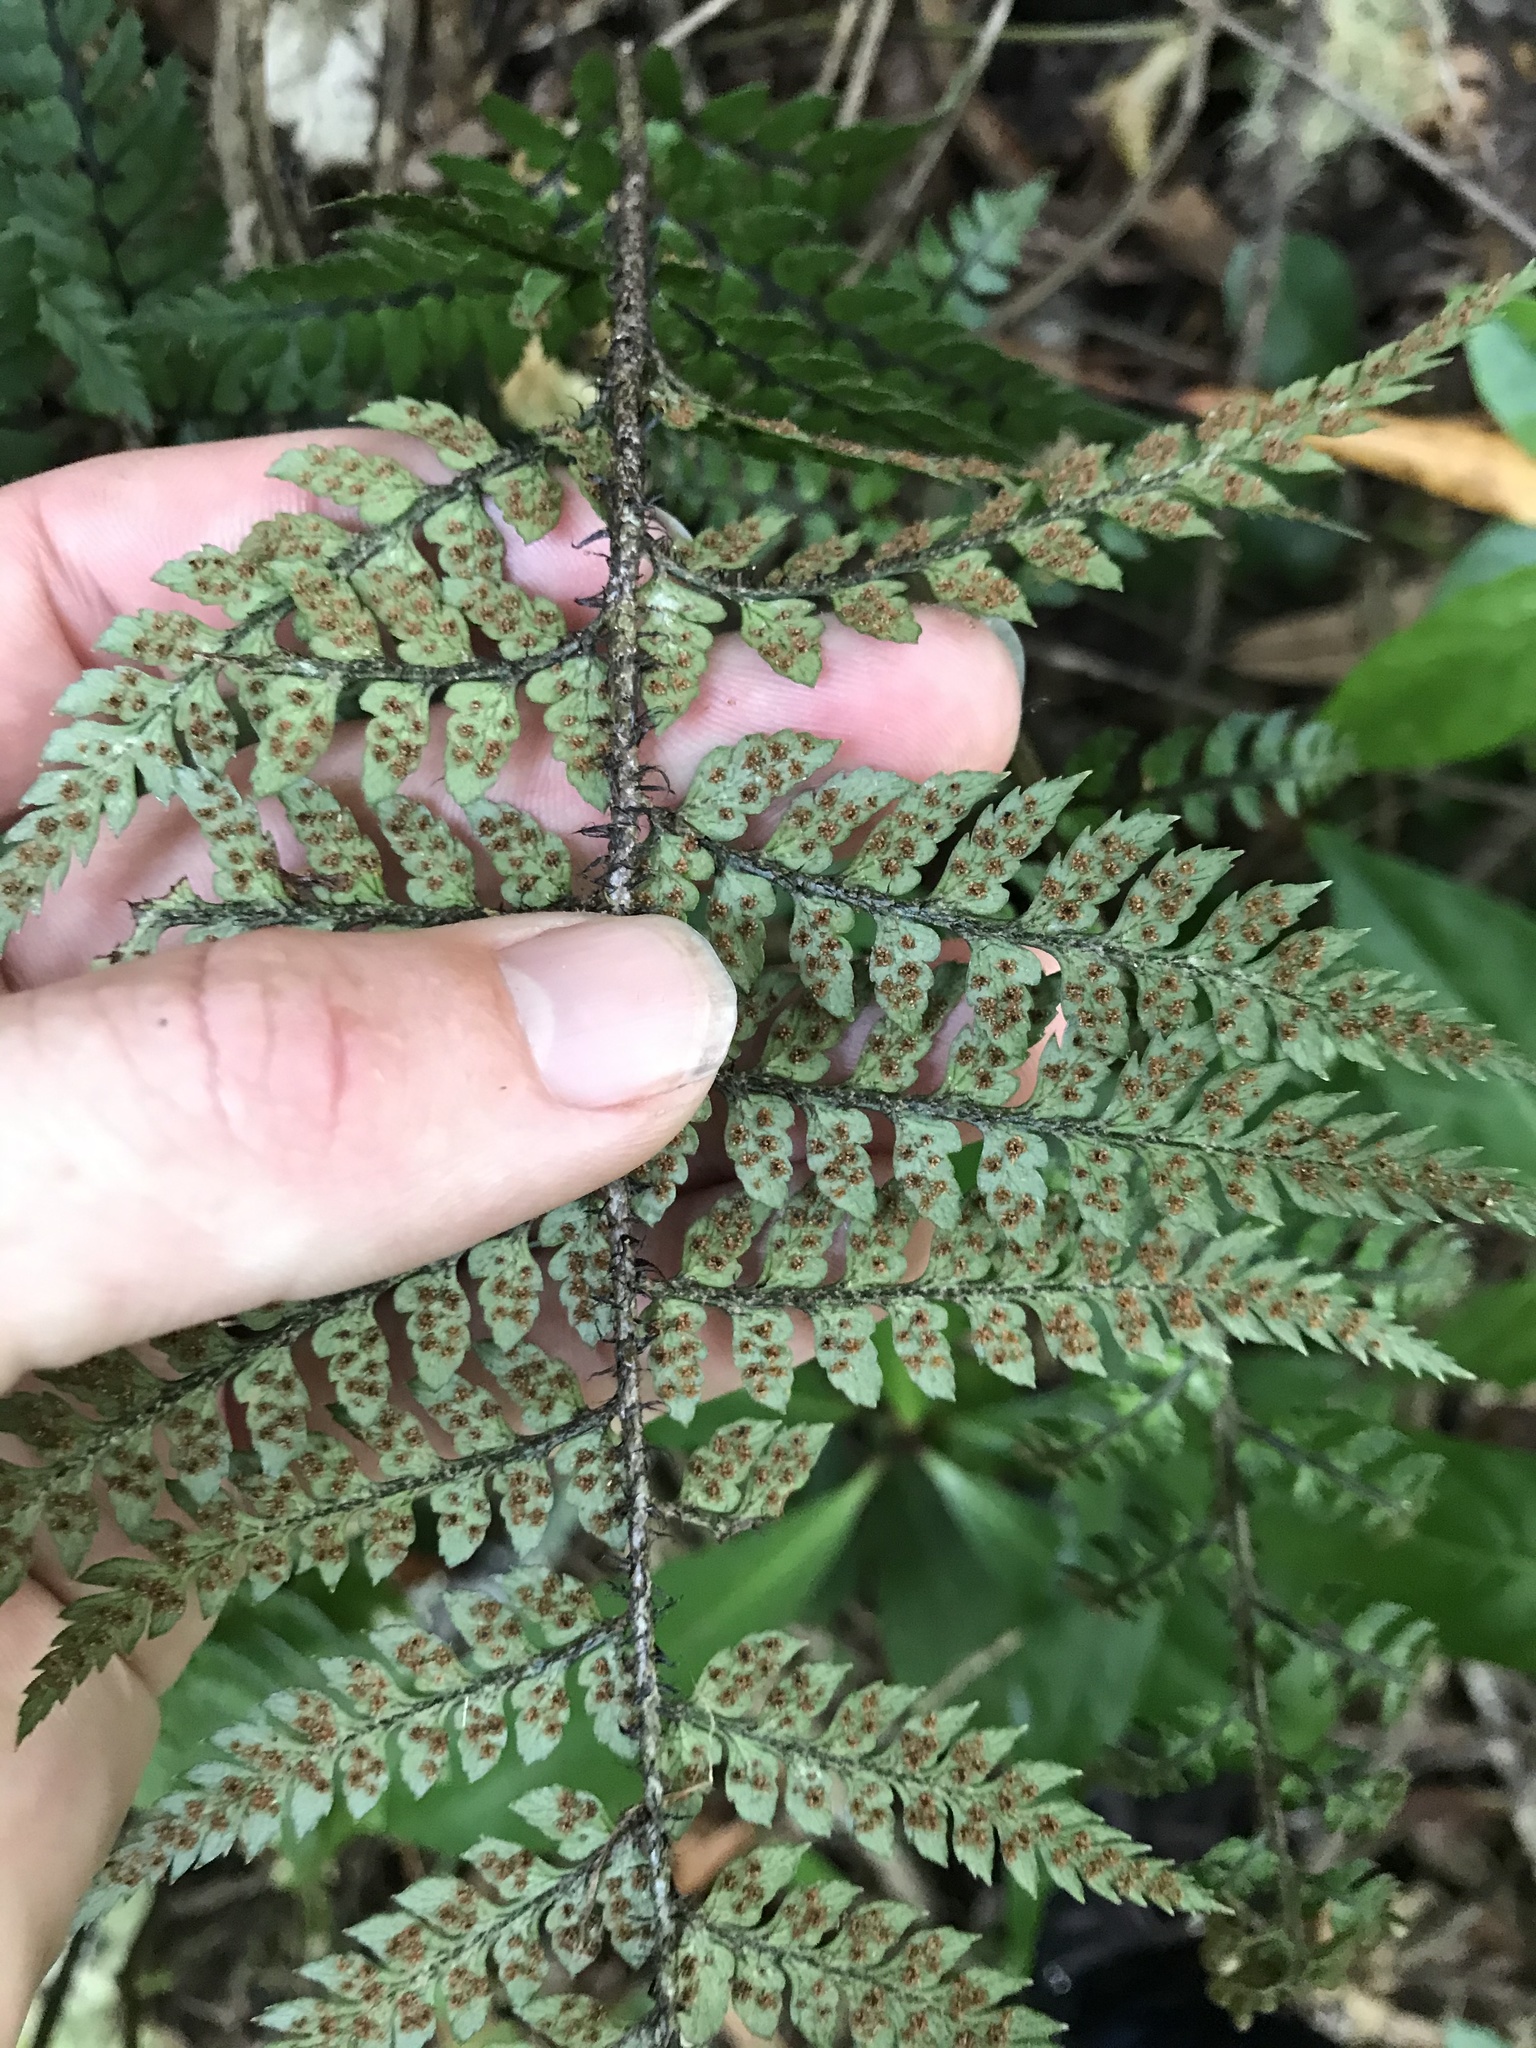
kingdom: Plantae
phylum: Tracheophyta
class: Polypodiopsida
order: Polypodiales
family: Dryopteridaceae
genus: Polystichum
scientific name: Polystichum neozelandicum
